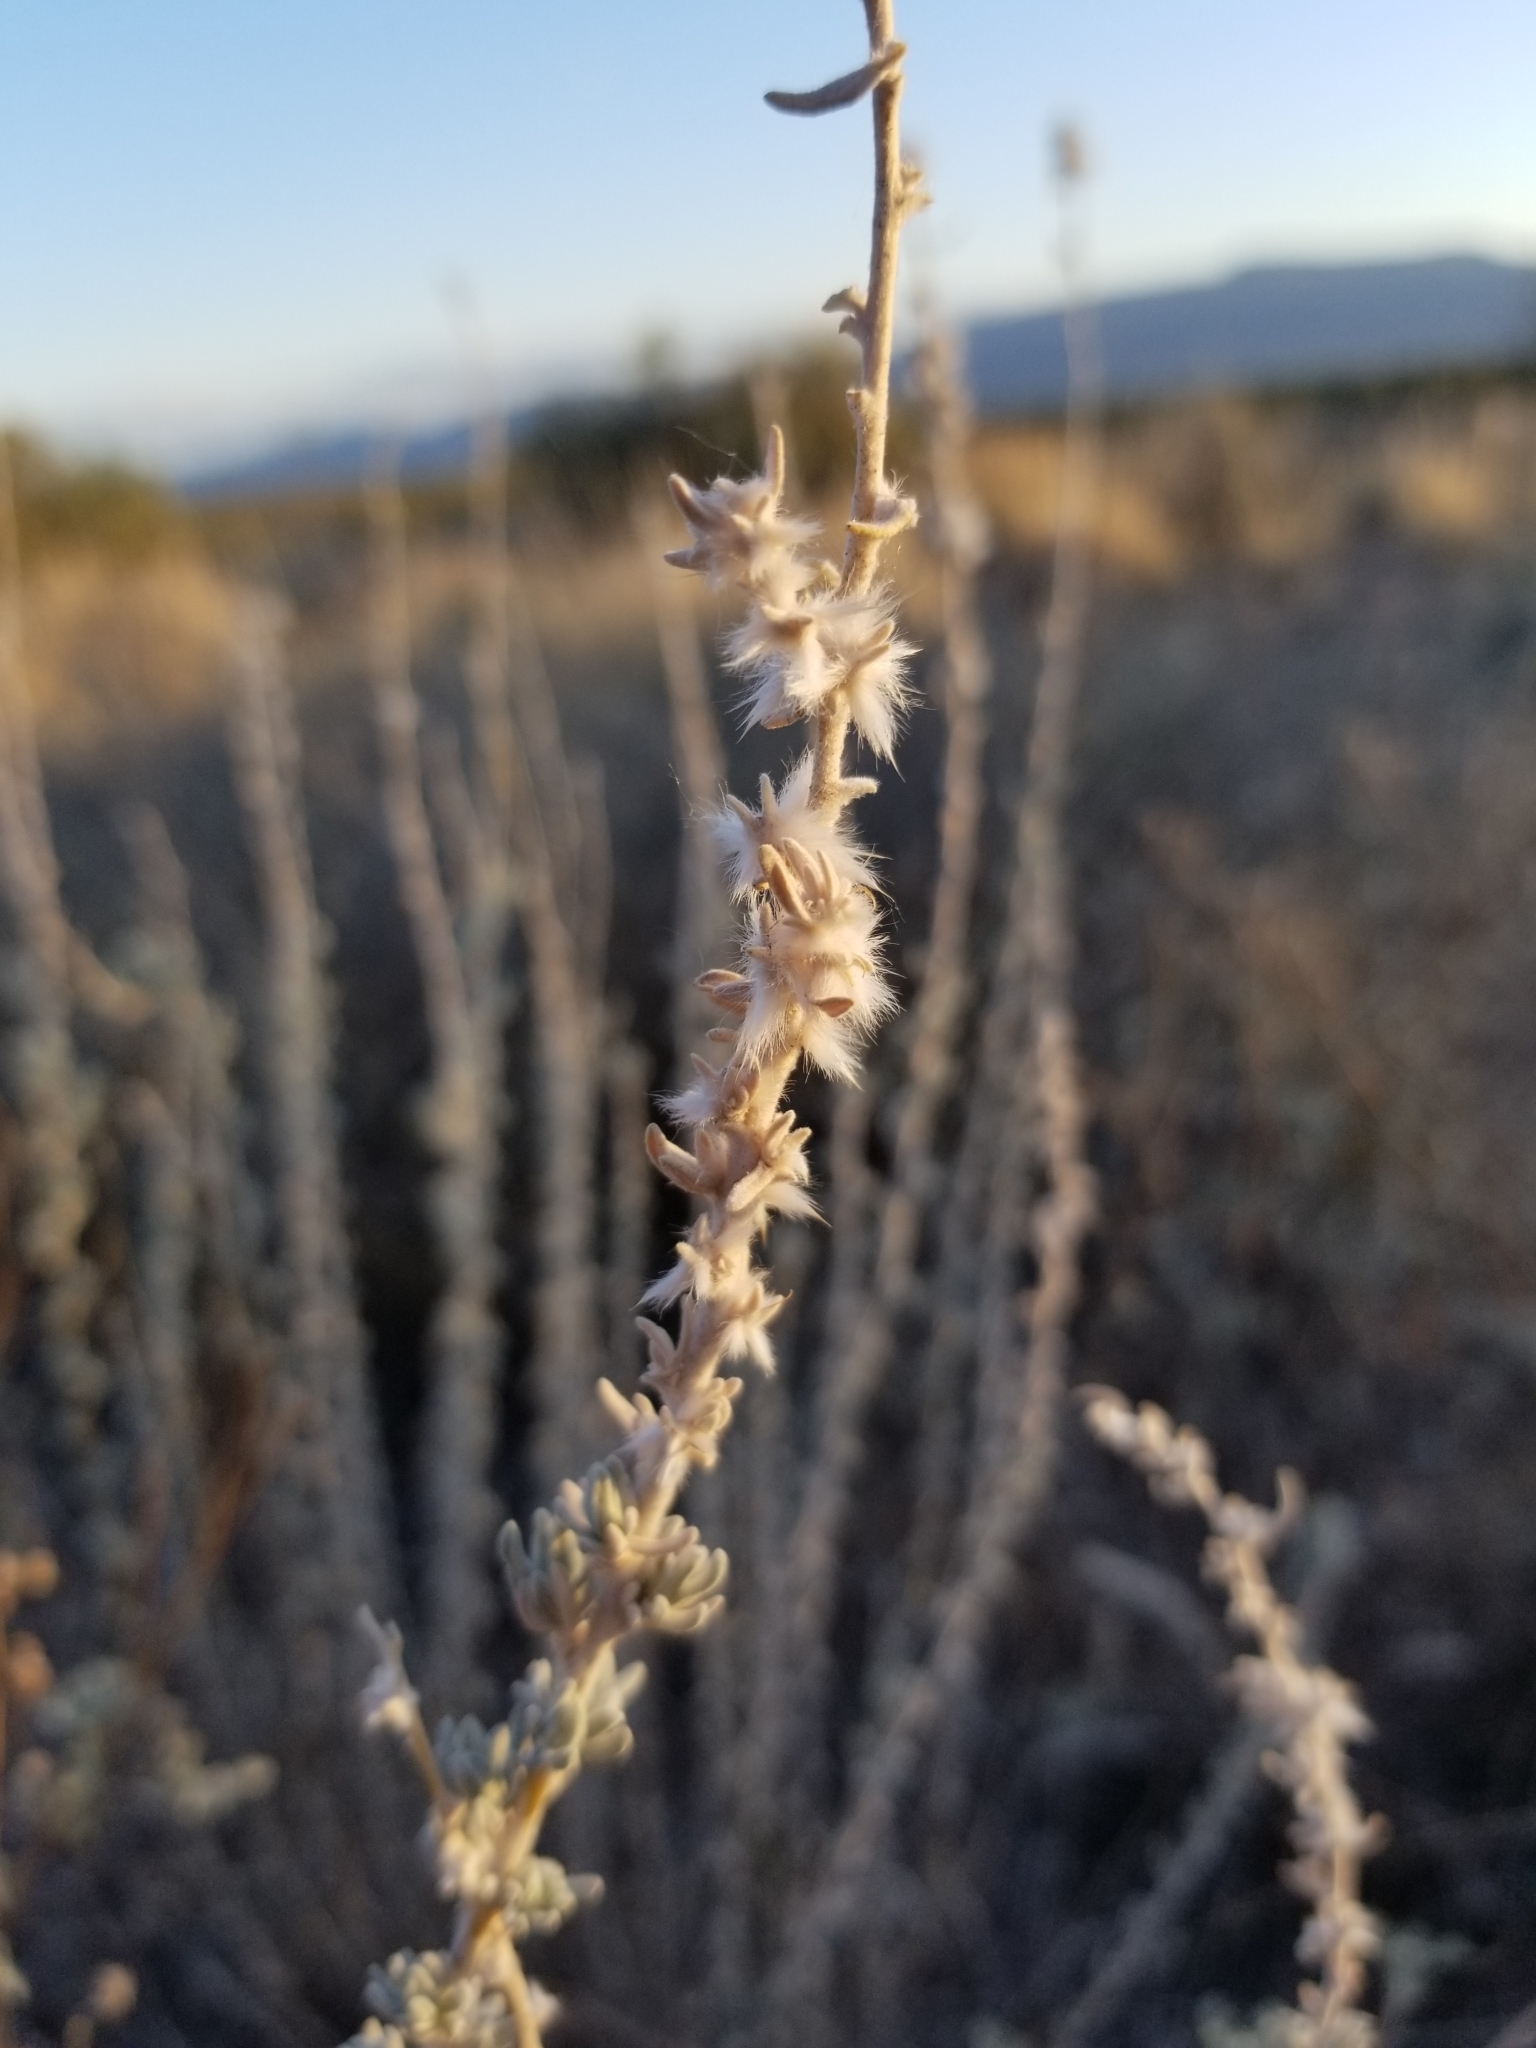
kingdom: Plantae
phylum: Tracheophyta
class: Magnoliopsida
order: Caryophyllales
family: Amaranthaceae
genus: Krascheninnikovia
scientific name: Krascheninnikovia lanata
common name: Winterfat
